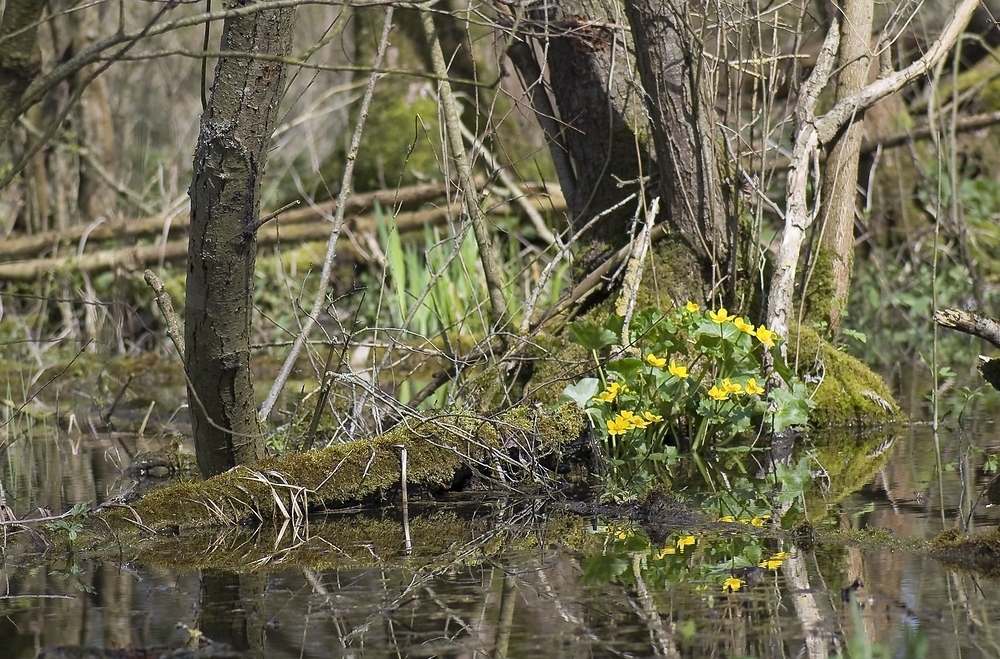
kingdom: Plantae
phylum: Tracheophyta
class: Magnoliopsida
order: Ranunculales
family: Ranunculaceae
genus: Caltha
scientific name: Caltha palustris
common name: Marsh marigold
